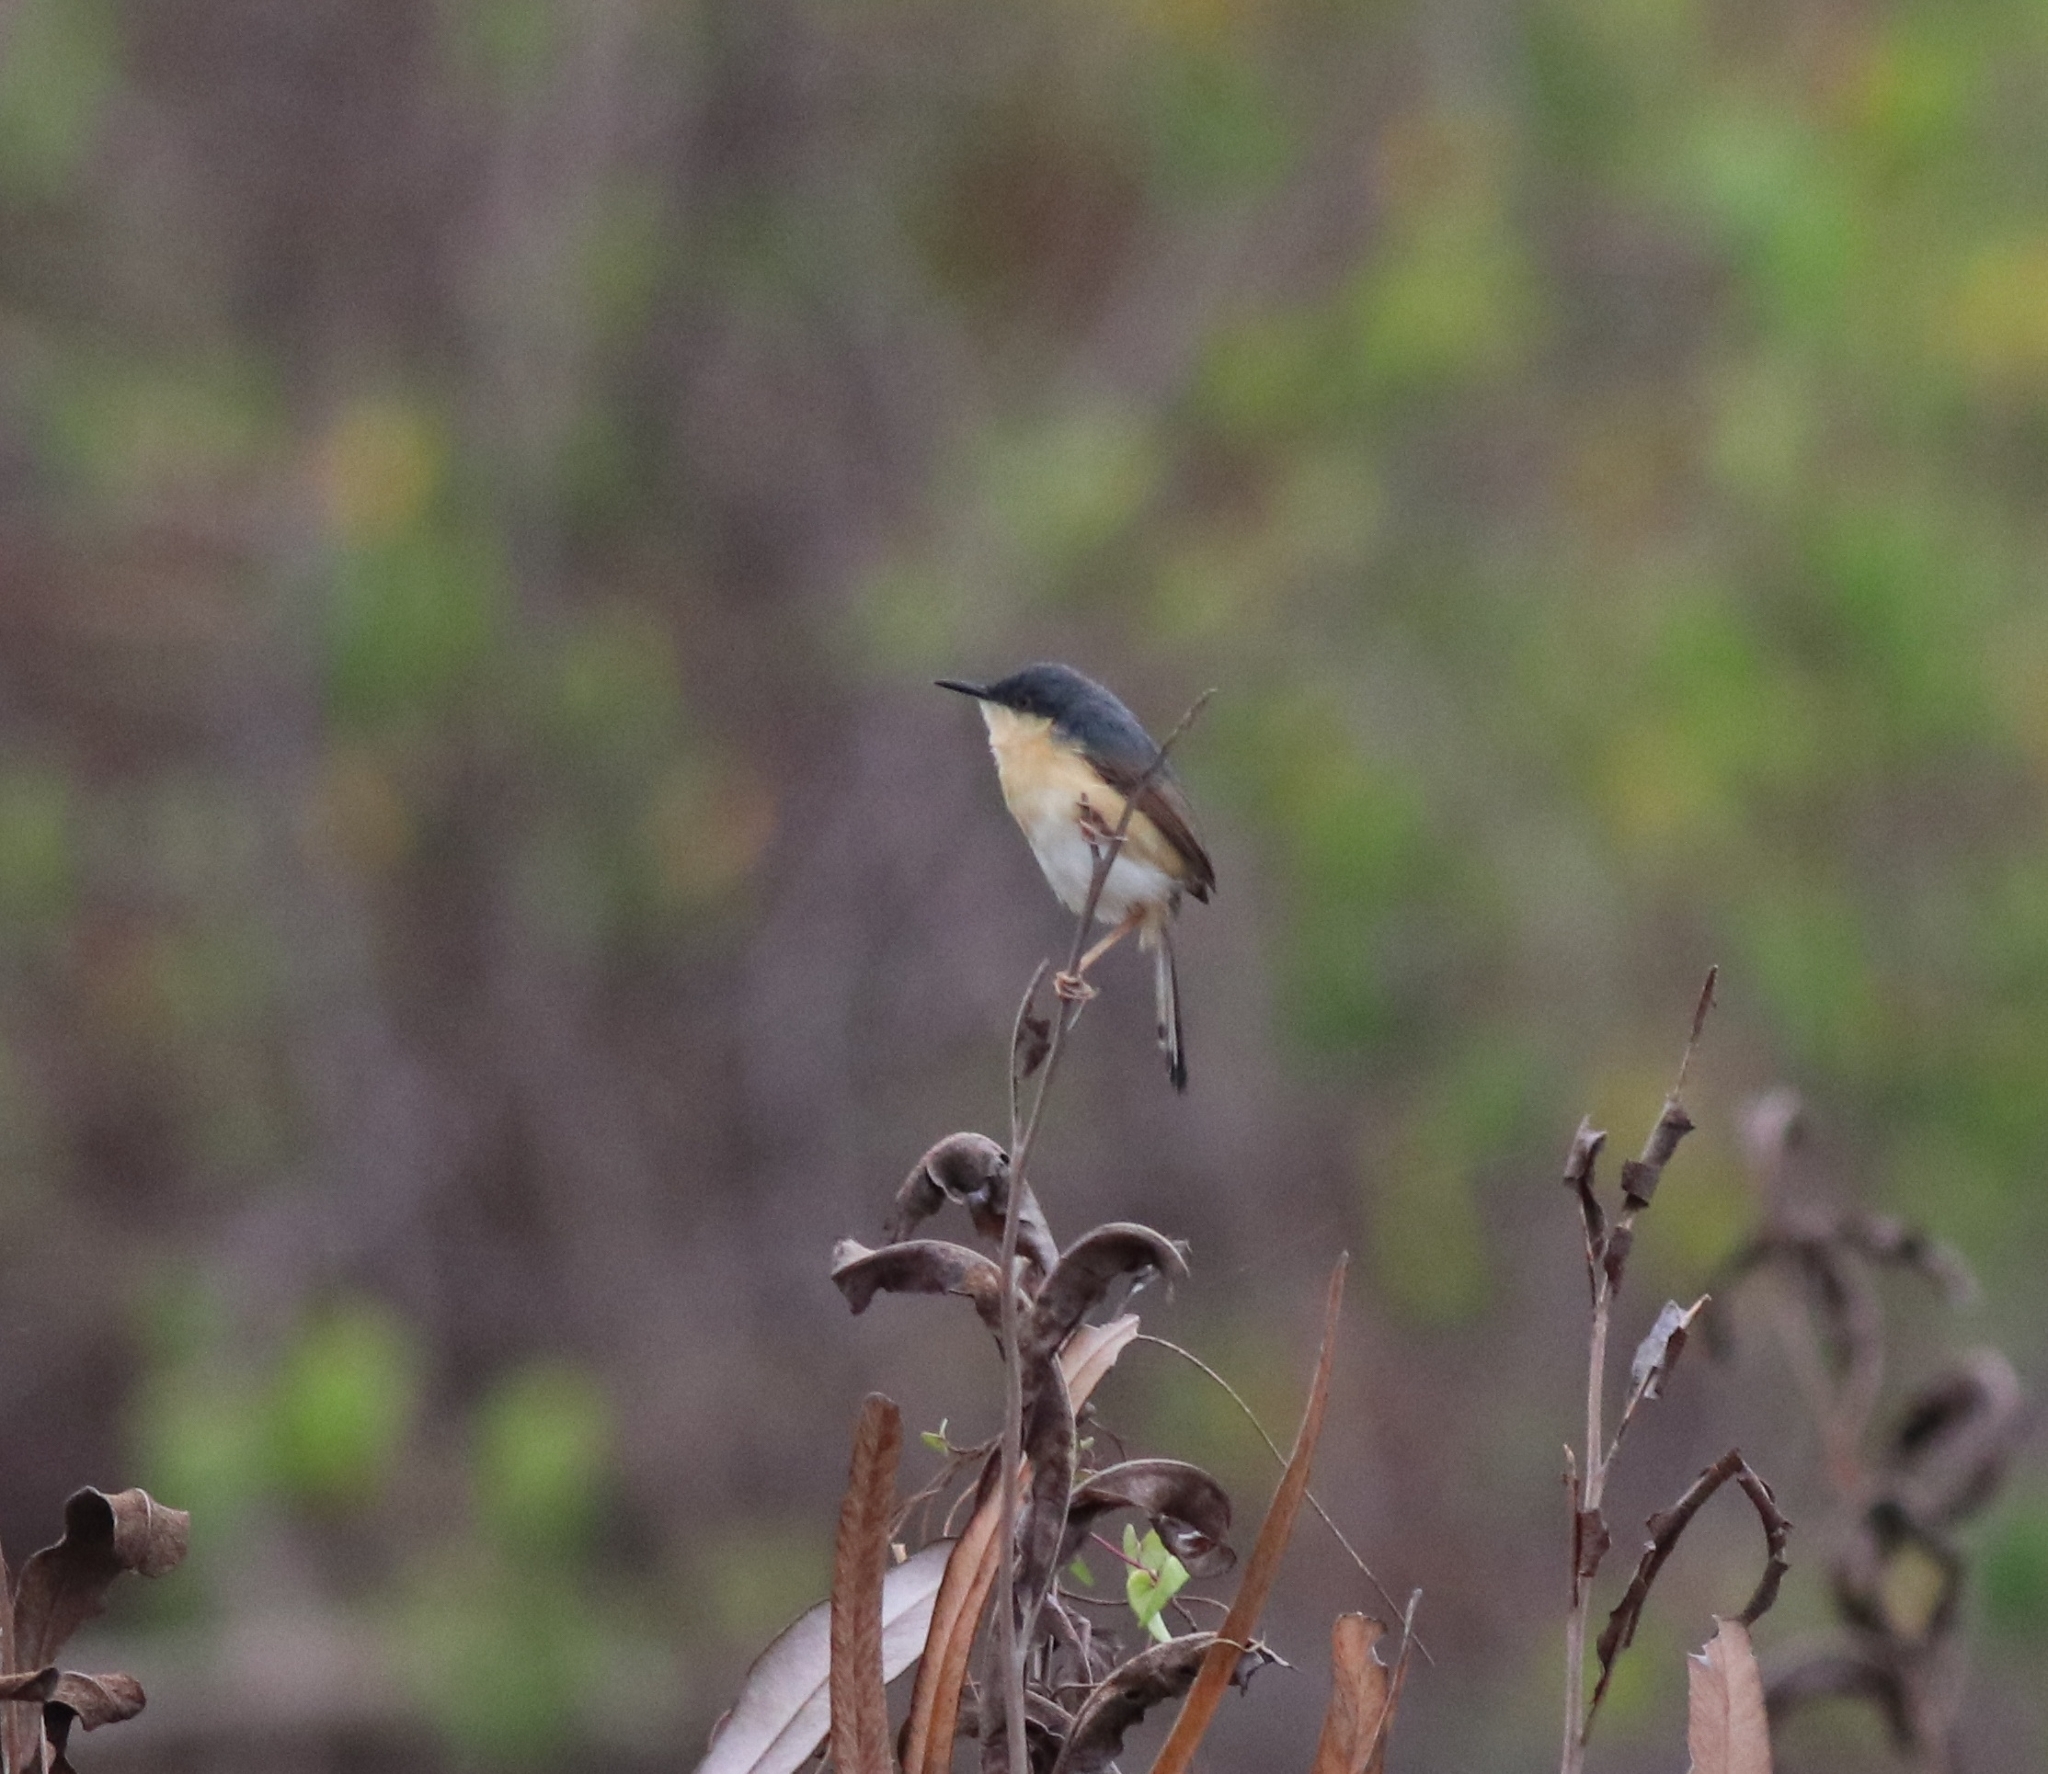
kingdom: Animalia
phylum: Chordata
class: Aves
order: Passeriformes
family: Cisticolidae
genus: Prinia
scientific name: Prinia socialis
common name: Ashy prinia
